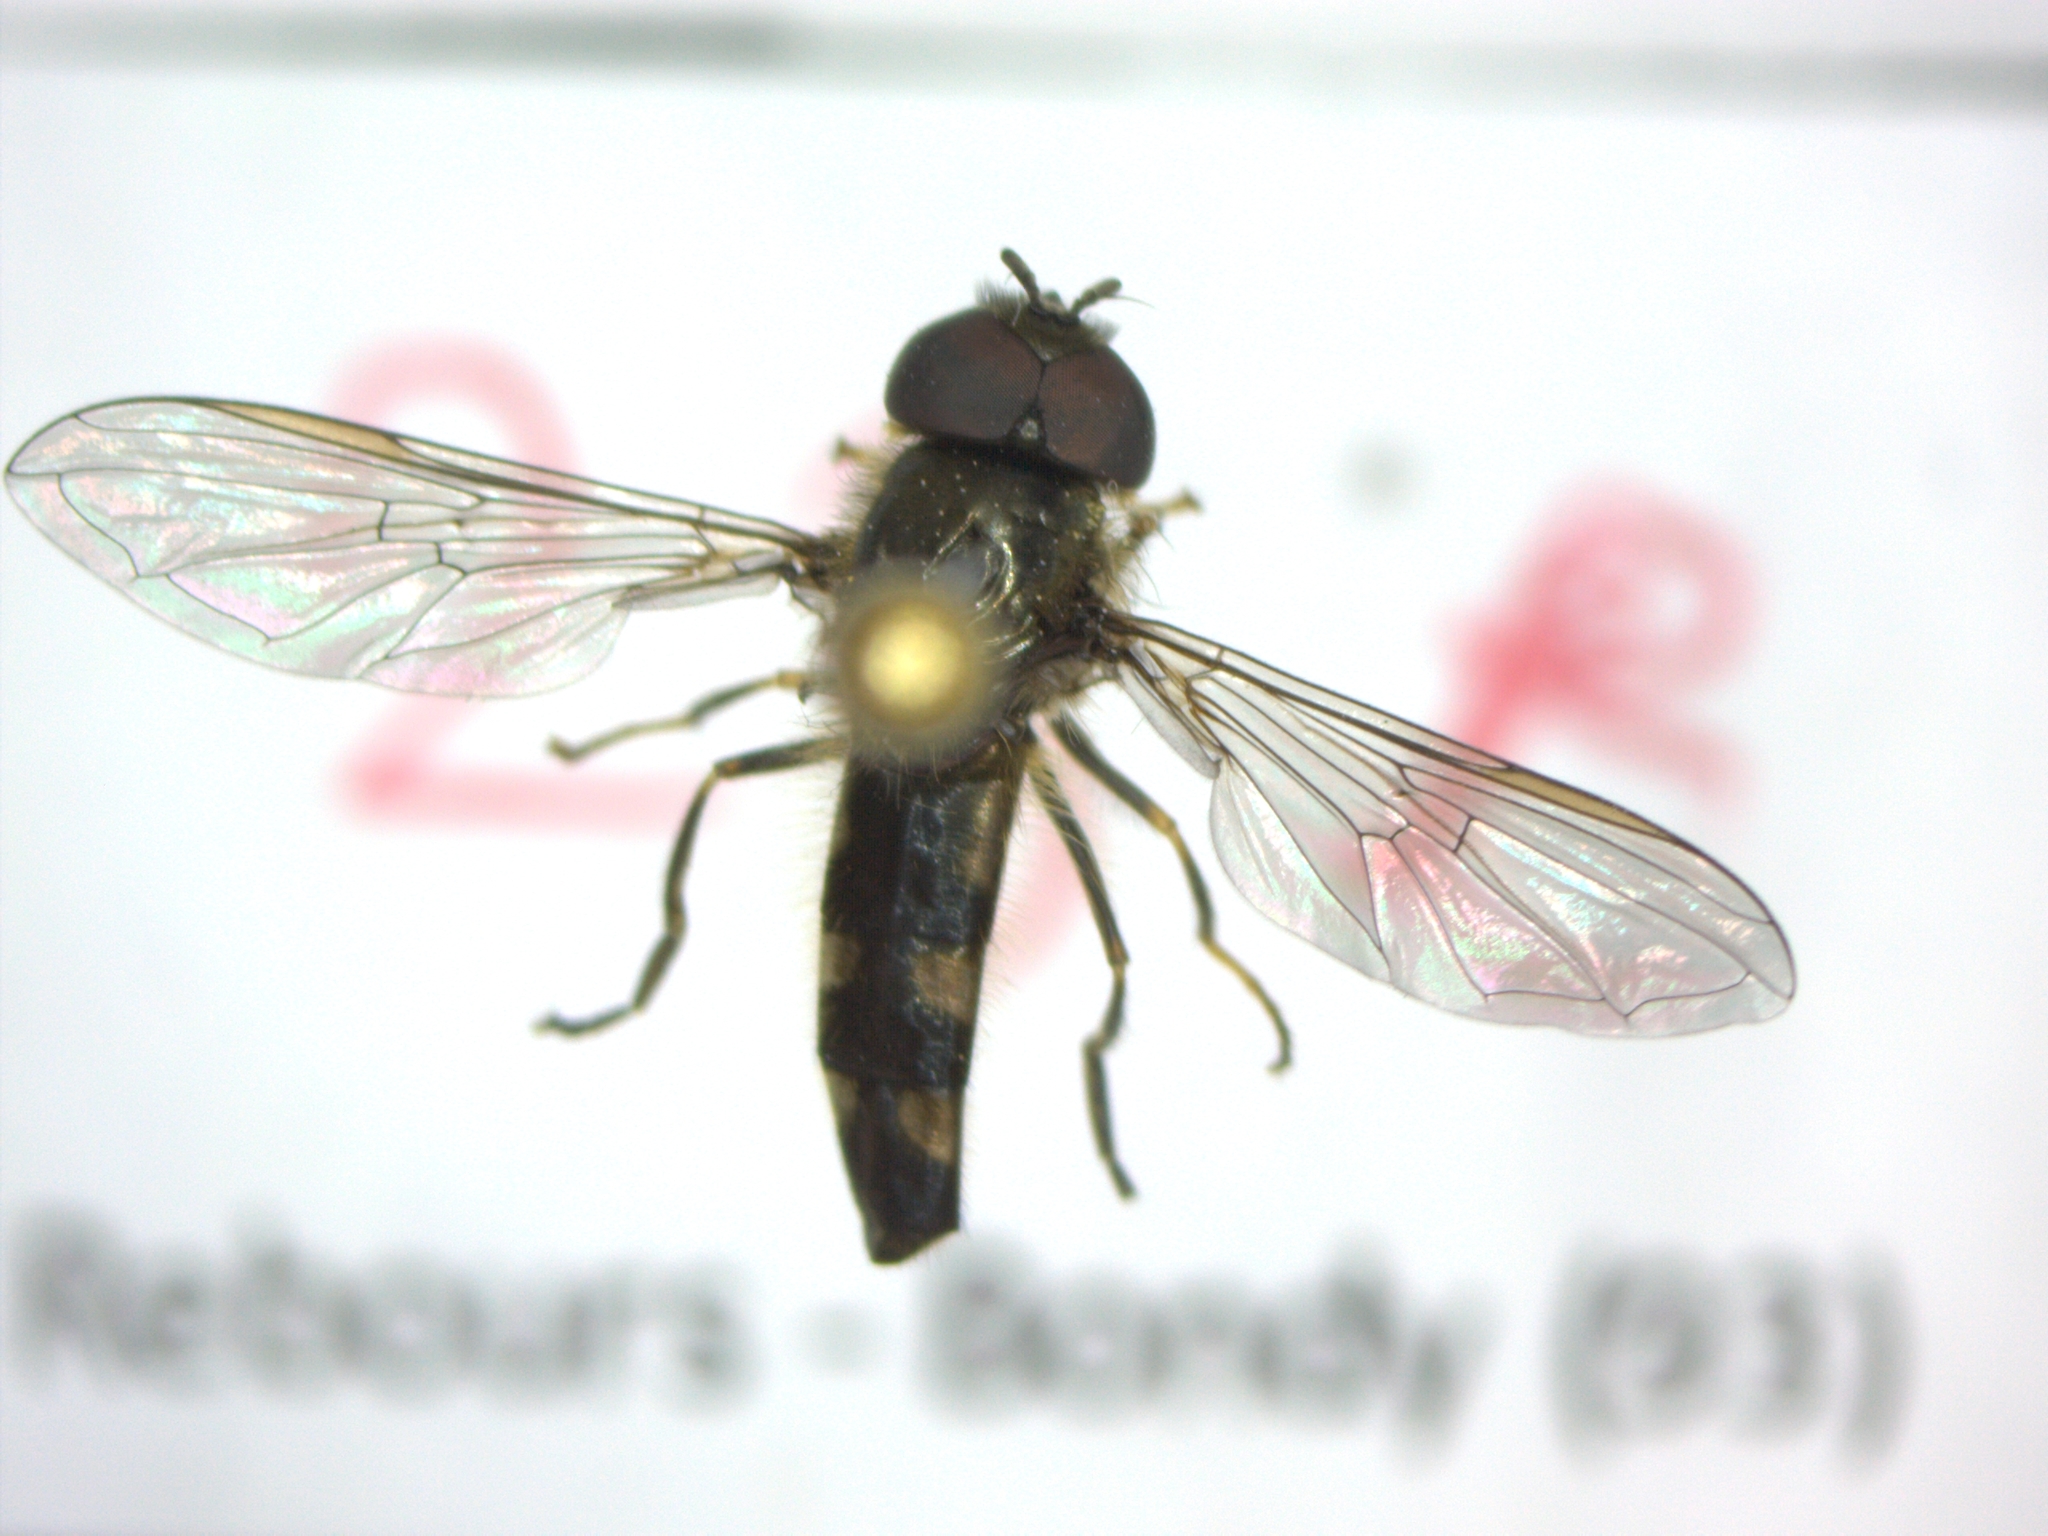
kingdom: Animalia
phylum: Arthropoda
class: Insecta
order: Diptera
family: Syrphidae
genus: Platycheirus
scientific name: Platycheirus albimanus
